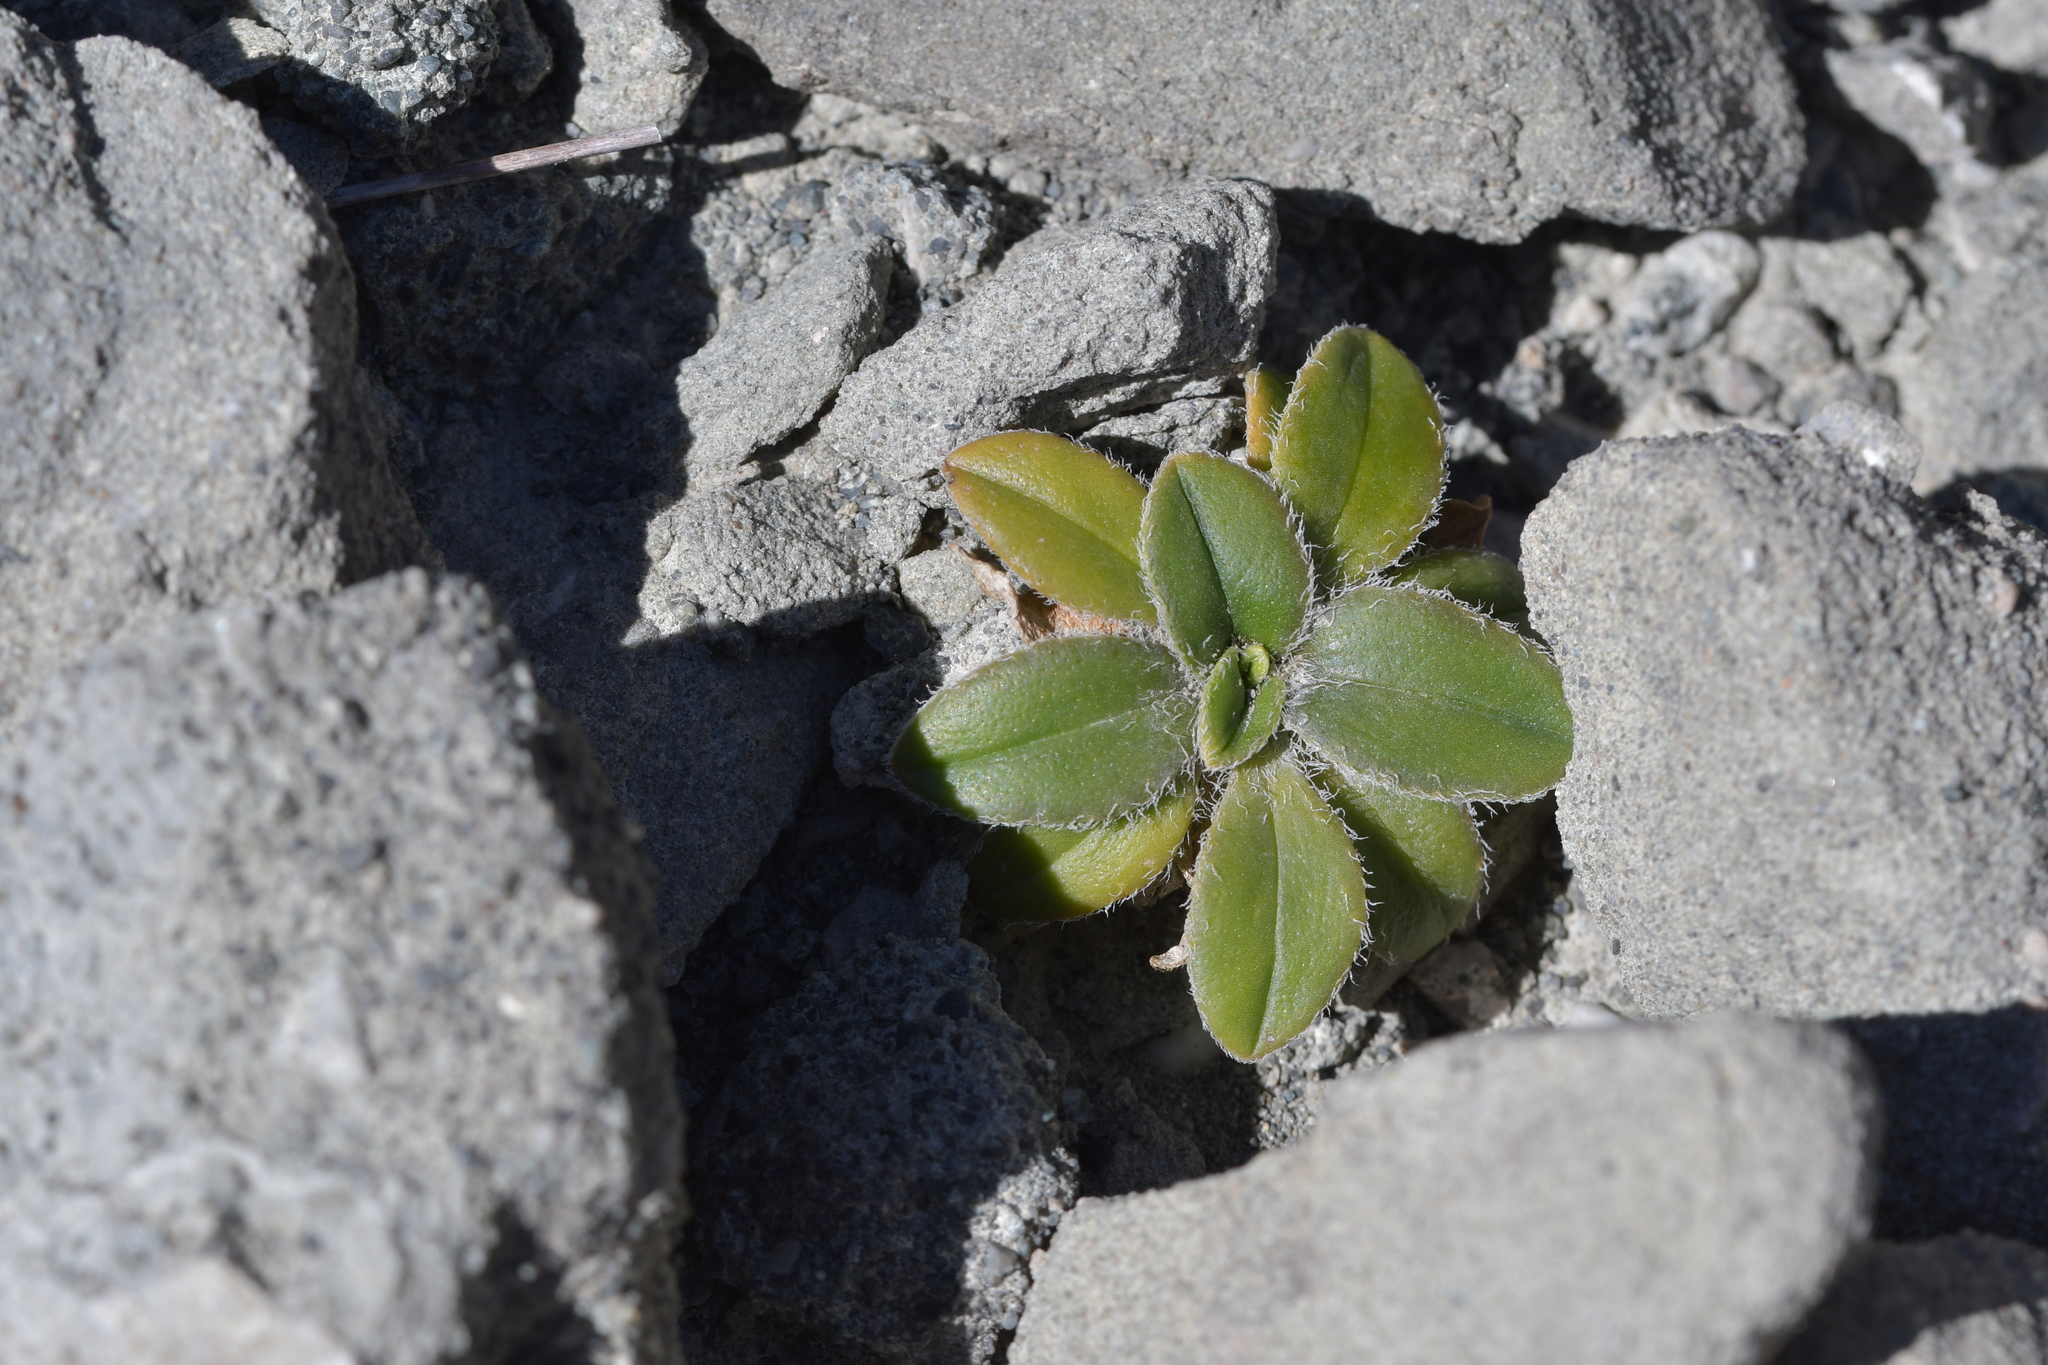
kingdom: Plantae
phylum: Tracheophyta
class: Magnoliopsida
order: Lamiales
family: Plantaginaceae
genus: Plantago
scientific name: Plantago spathulata
